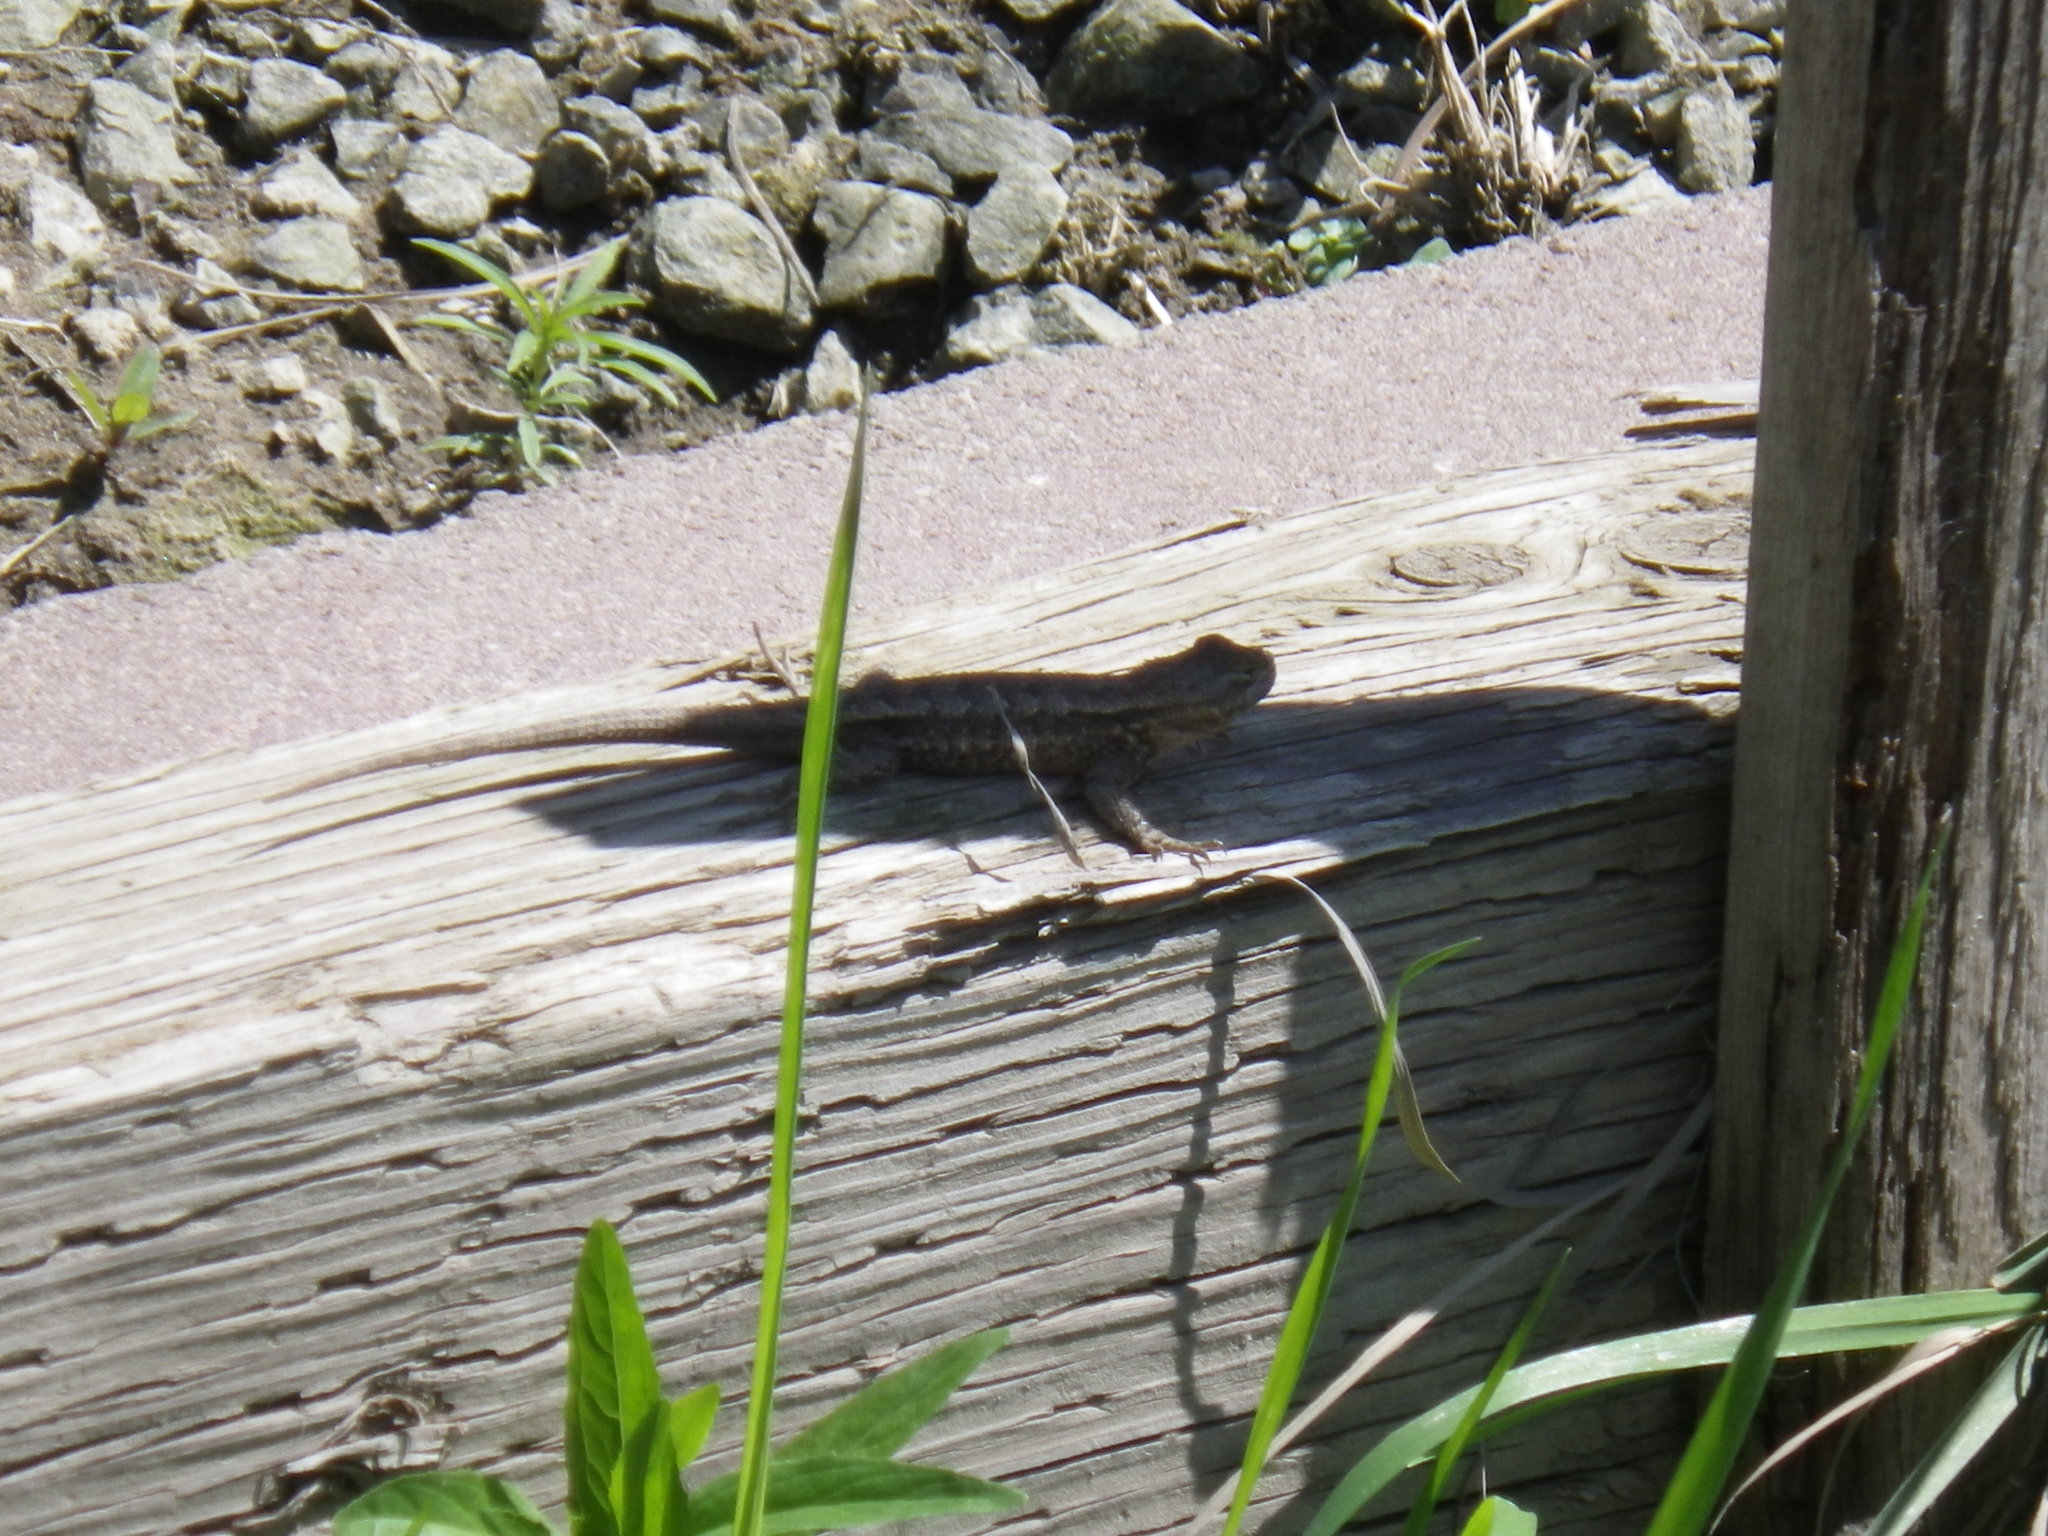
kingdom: Animalia
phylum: Chordata
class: Squamata
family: Phrynosomatidae
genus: Sceloporus
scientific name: Sceloporus occidentalis
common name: Western fence lizard
